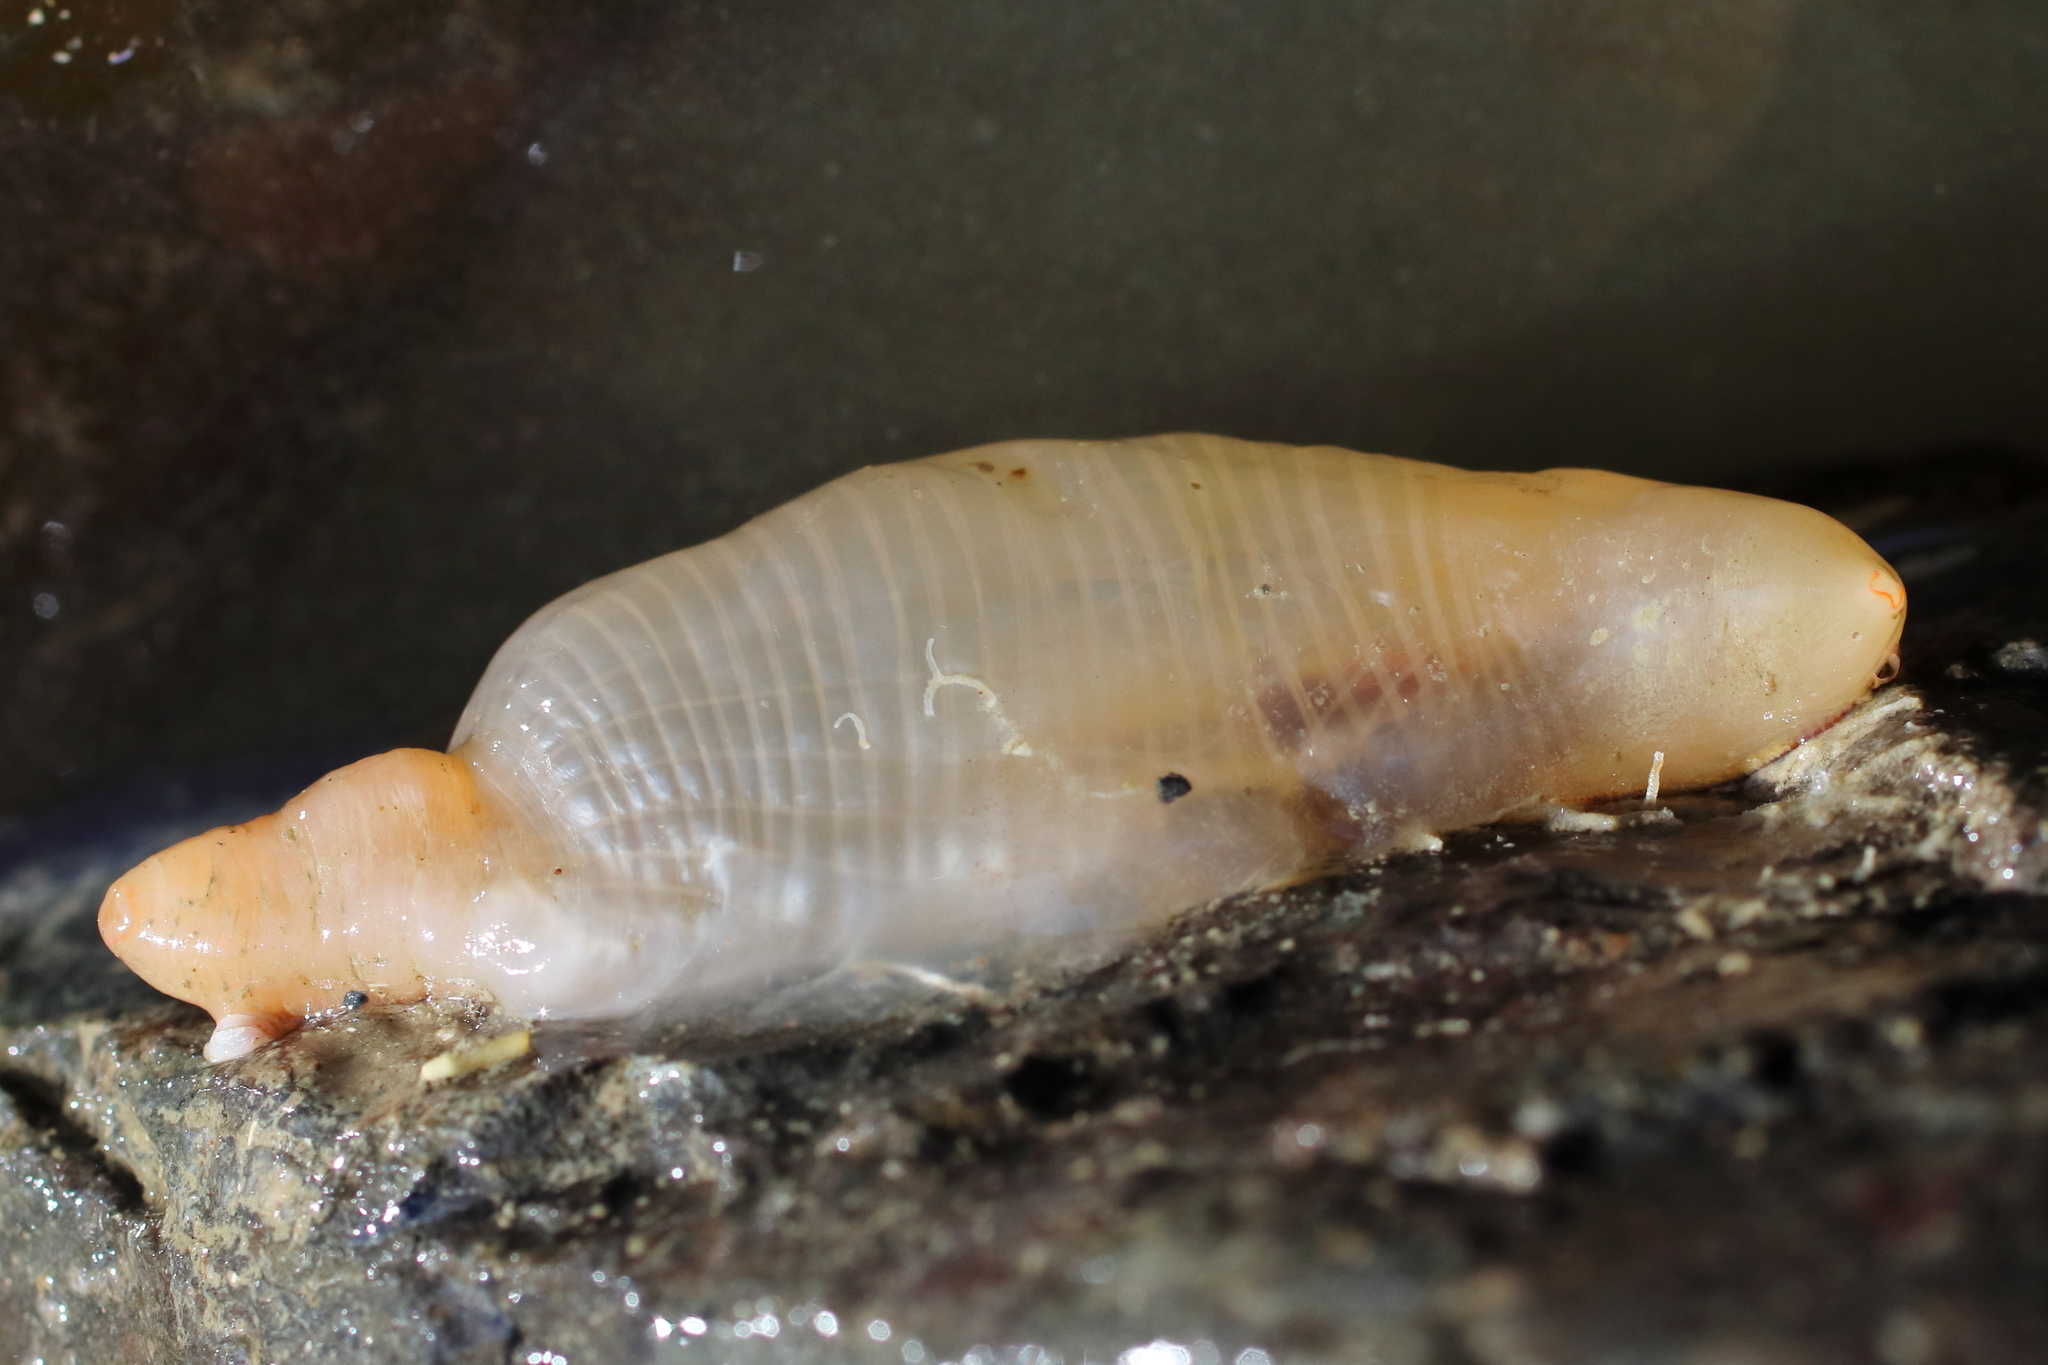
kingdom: Animalia
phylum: Chordata
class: Ascidiacea
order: Stolidobranchia
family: Pyuridae
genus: Pyura
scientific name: Pyura mirabilis
